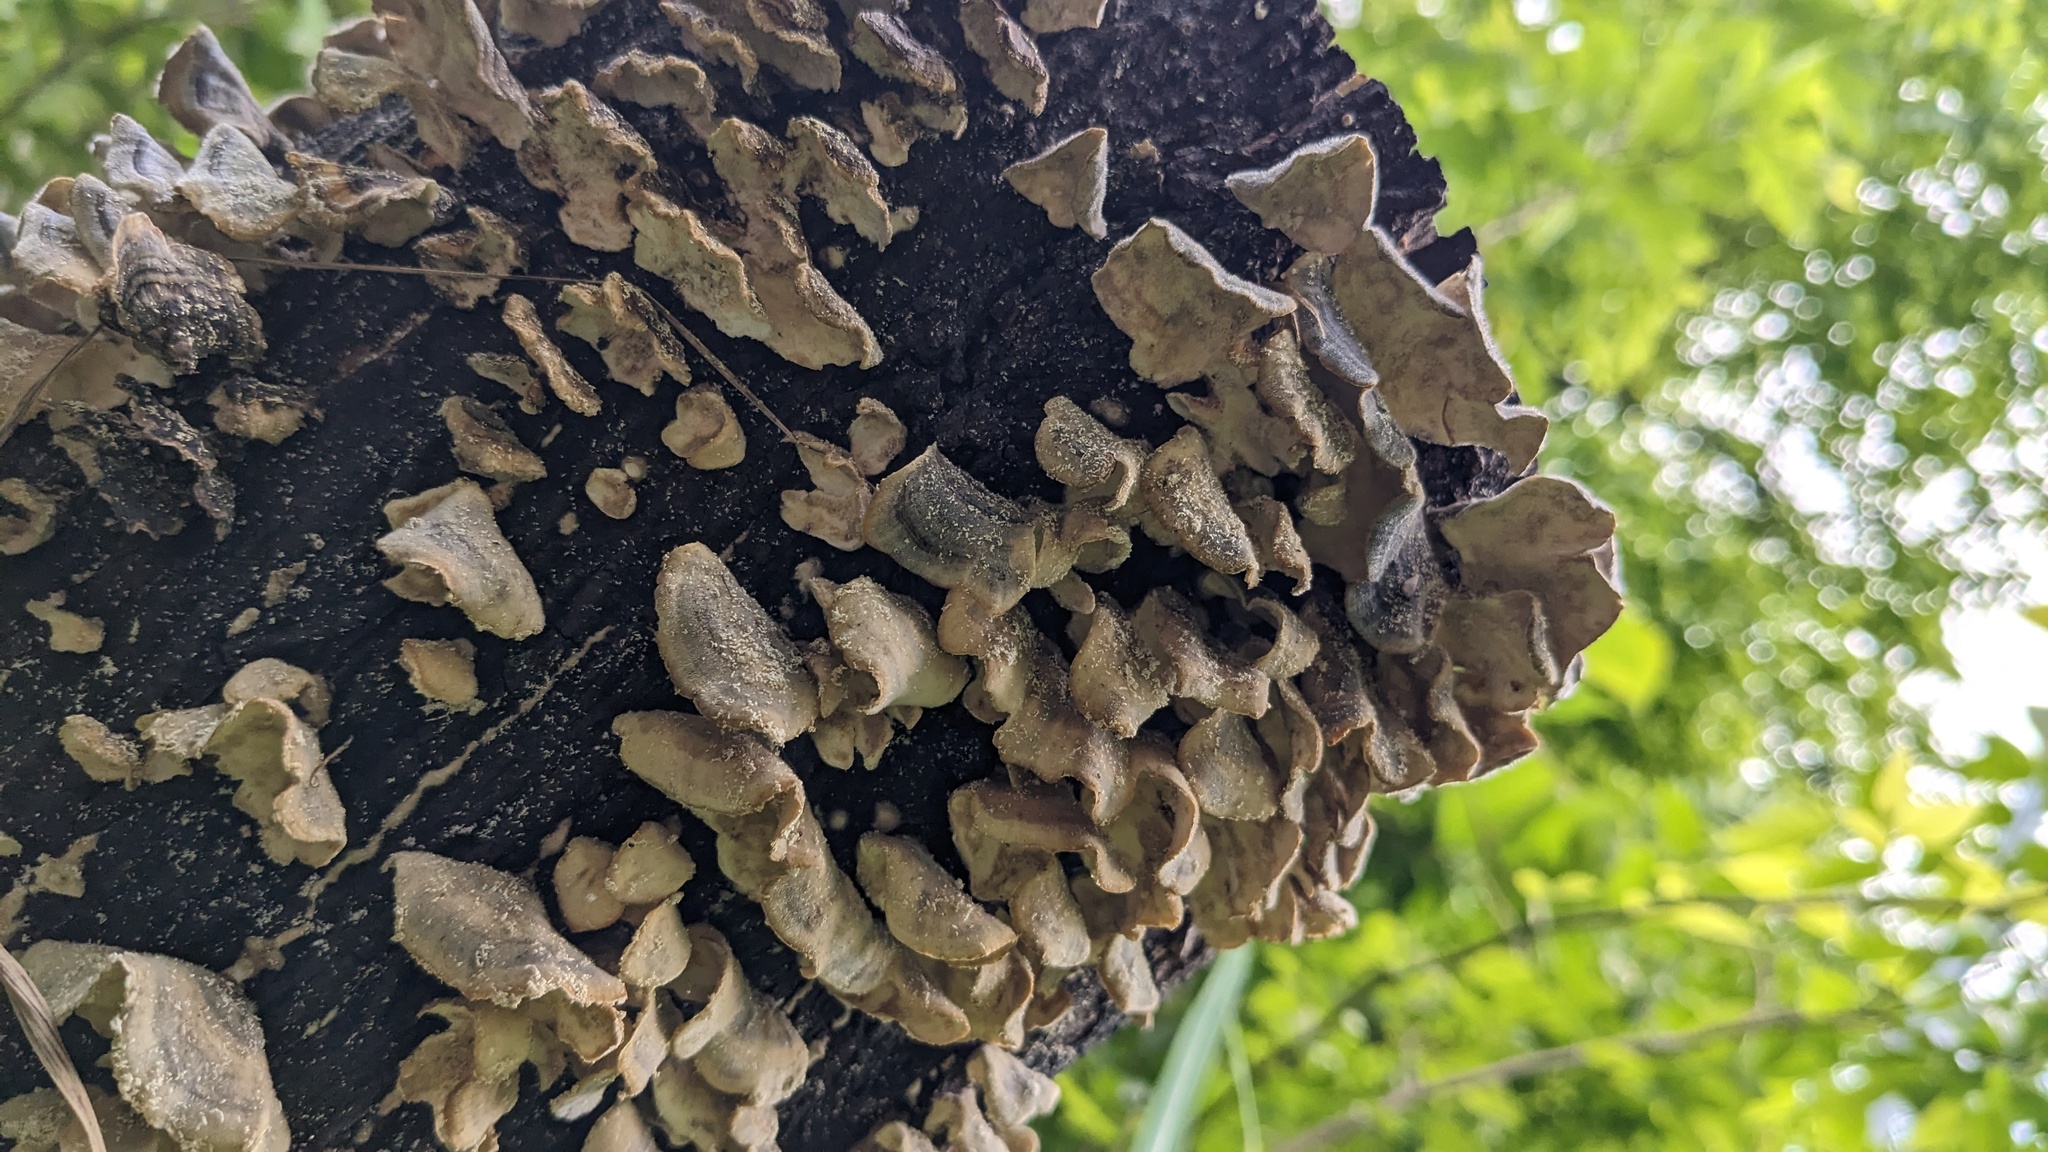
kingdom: Fungi
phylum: Basidiomycota
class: Agaricomycetes
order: Polyporales
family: Polyporaceae
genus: Trametes
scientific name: Trametes versicolor
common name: Turkeytail
